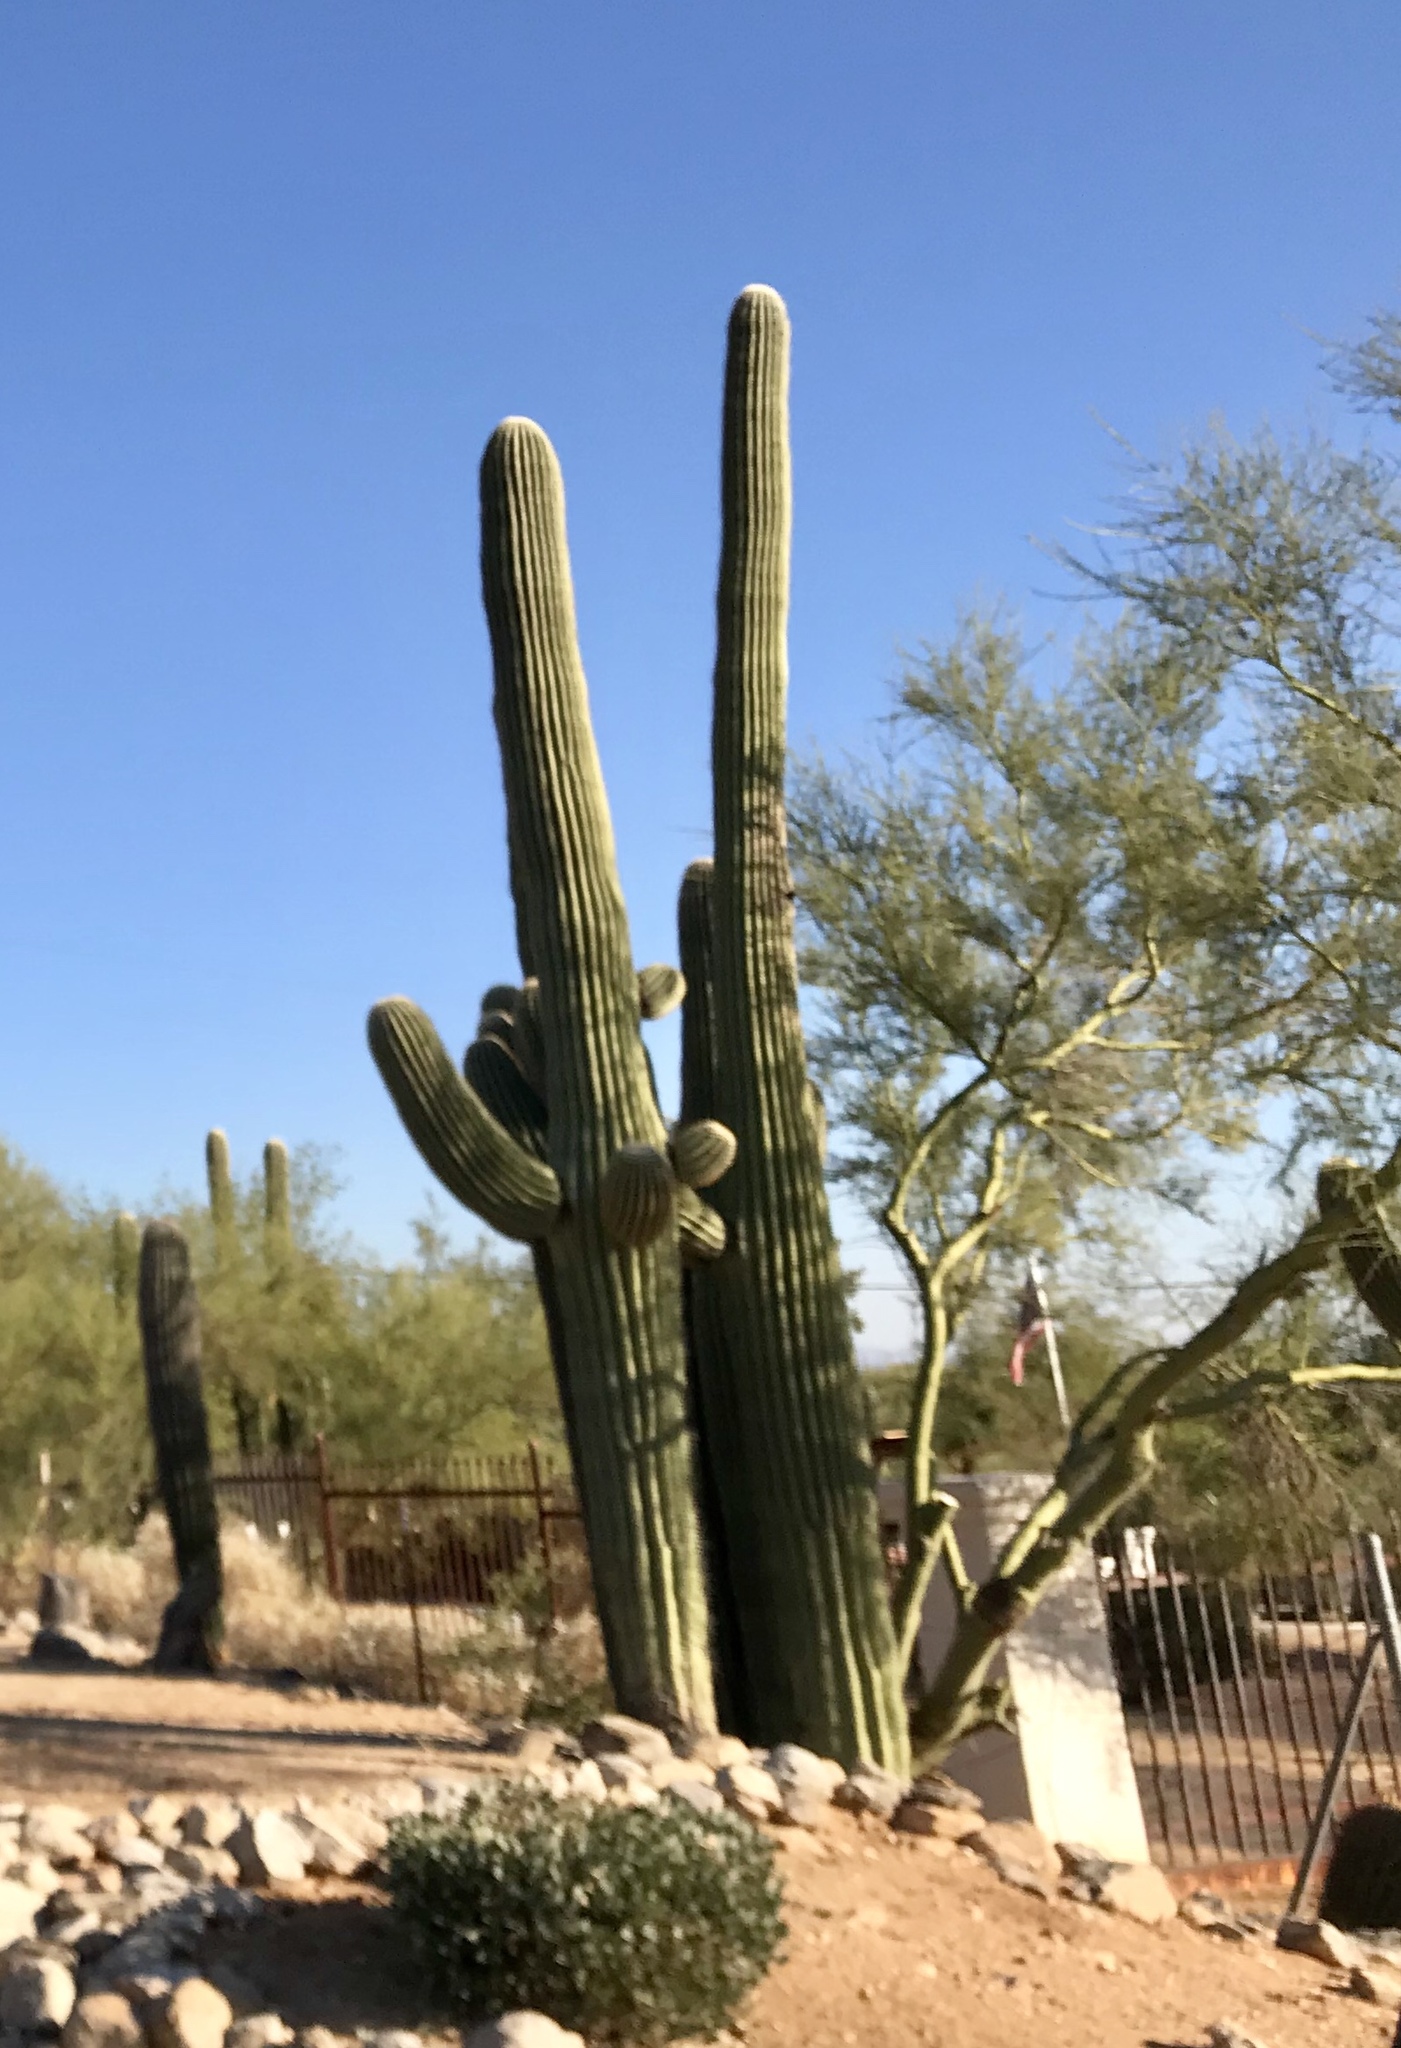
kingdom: Plantae
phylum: Tracheophyta
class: Magnoliopsida
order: Caryophyllales
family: Cactaceae
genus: Carnegiea
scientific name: Carnegiea gigantea
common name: Saguaro
